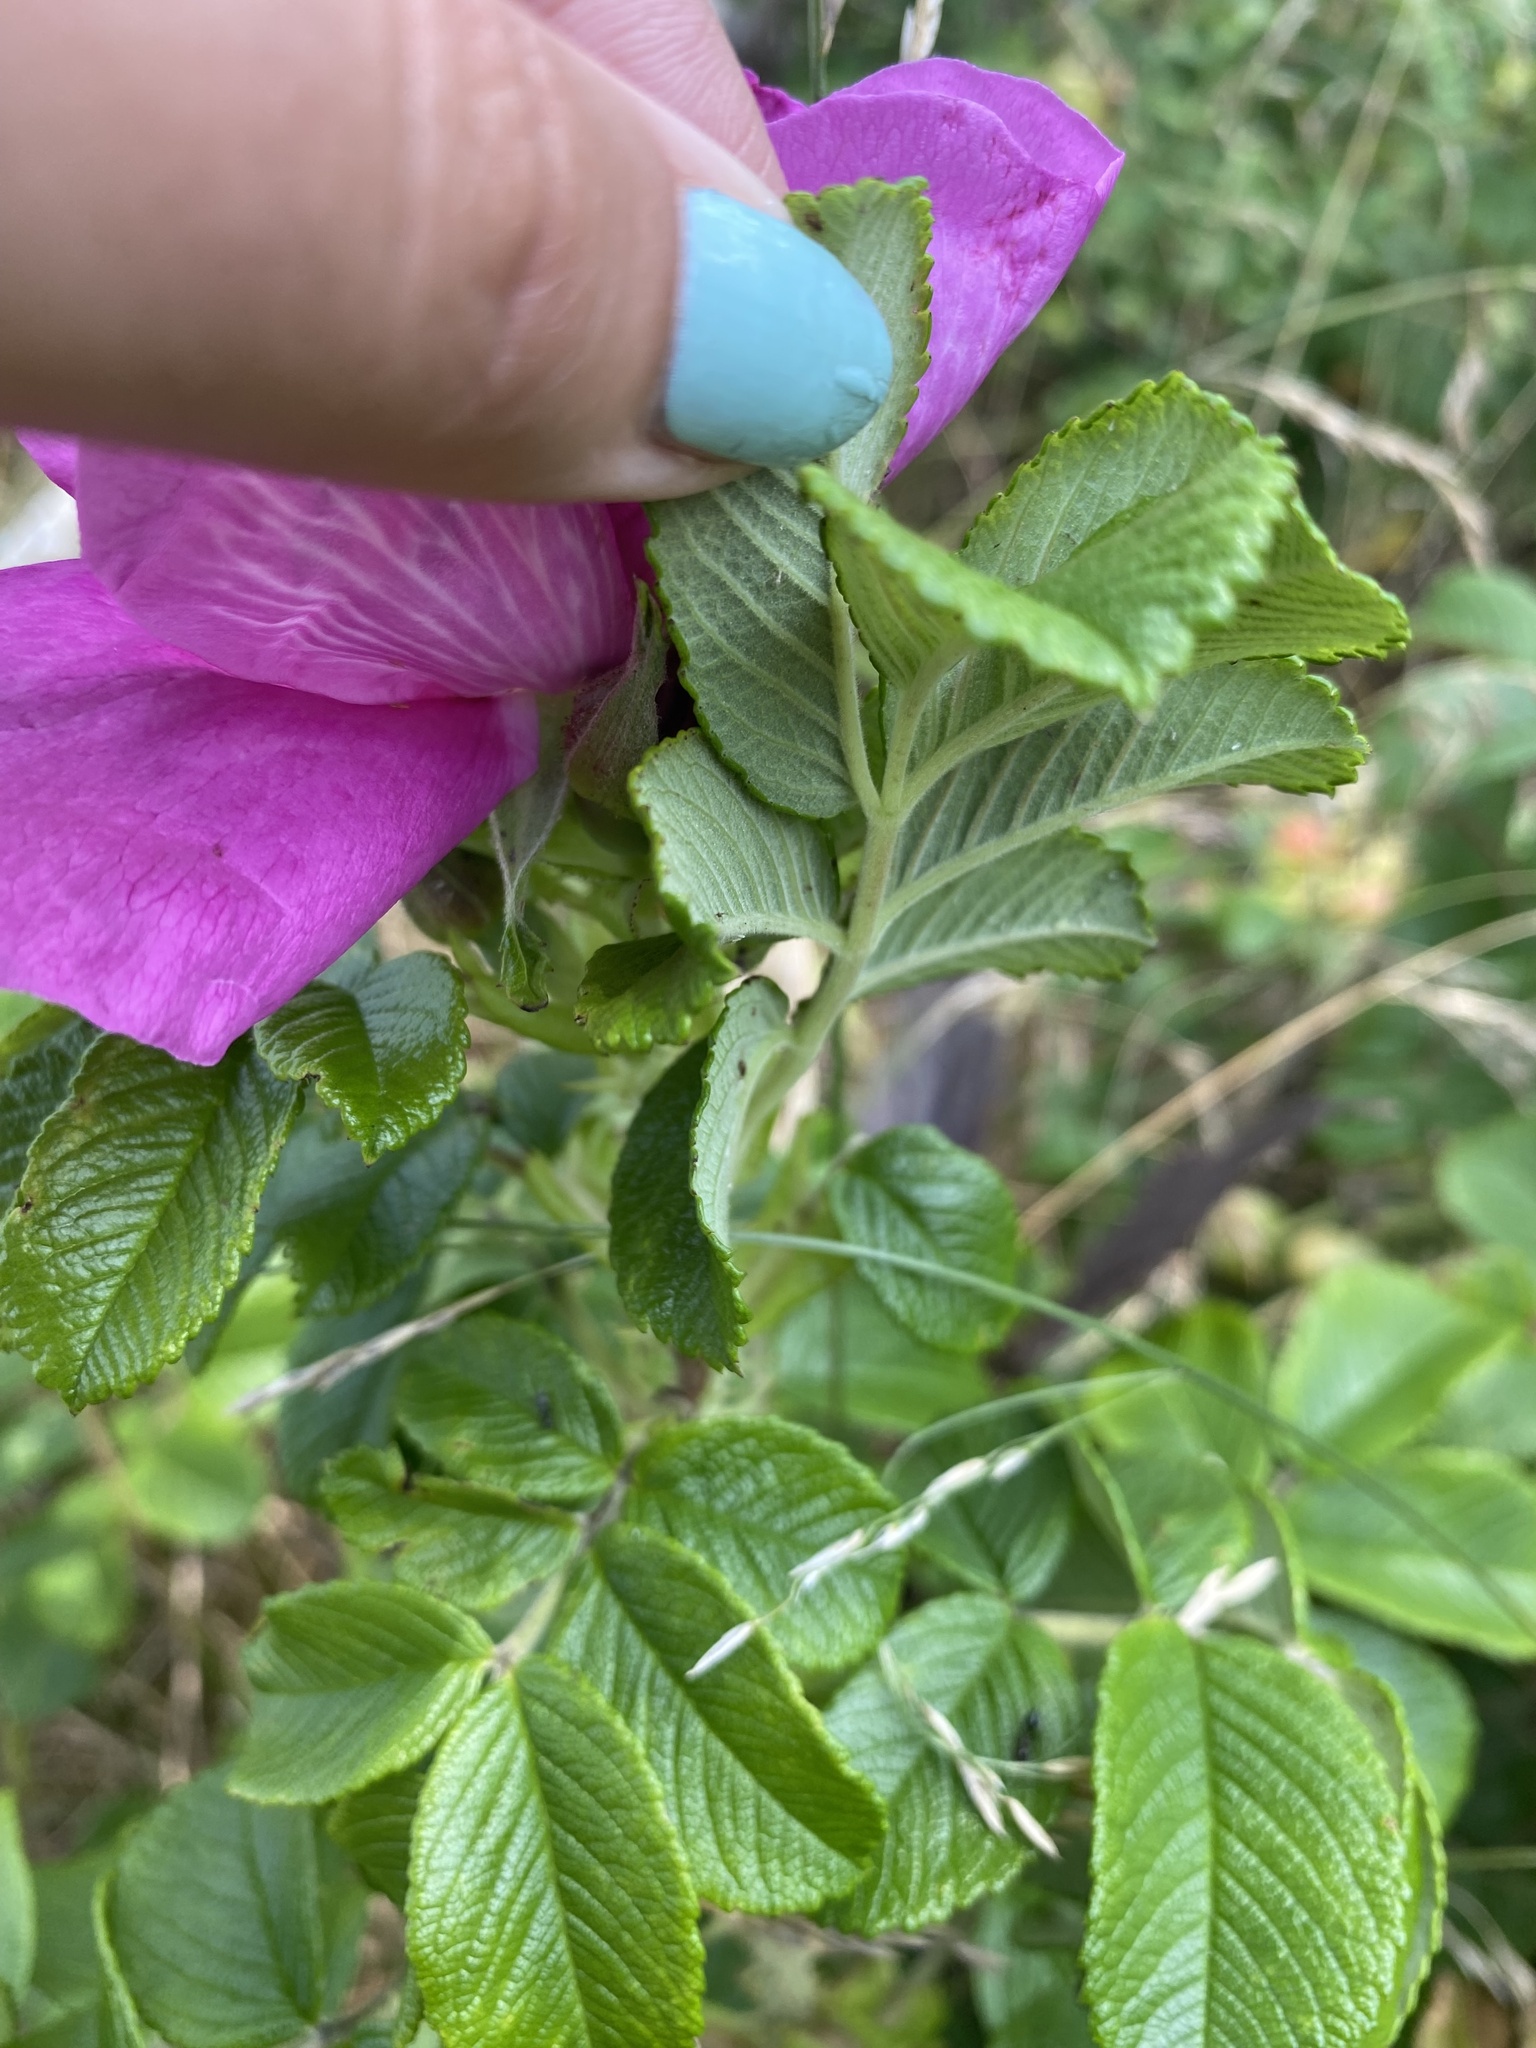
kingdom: Plantae
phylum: Tracheophyta
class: Magnoliopsida
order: Rosales
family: Rosaceae
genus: Rosa
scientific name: Rosa rugosa
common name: Japanese rose
